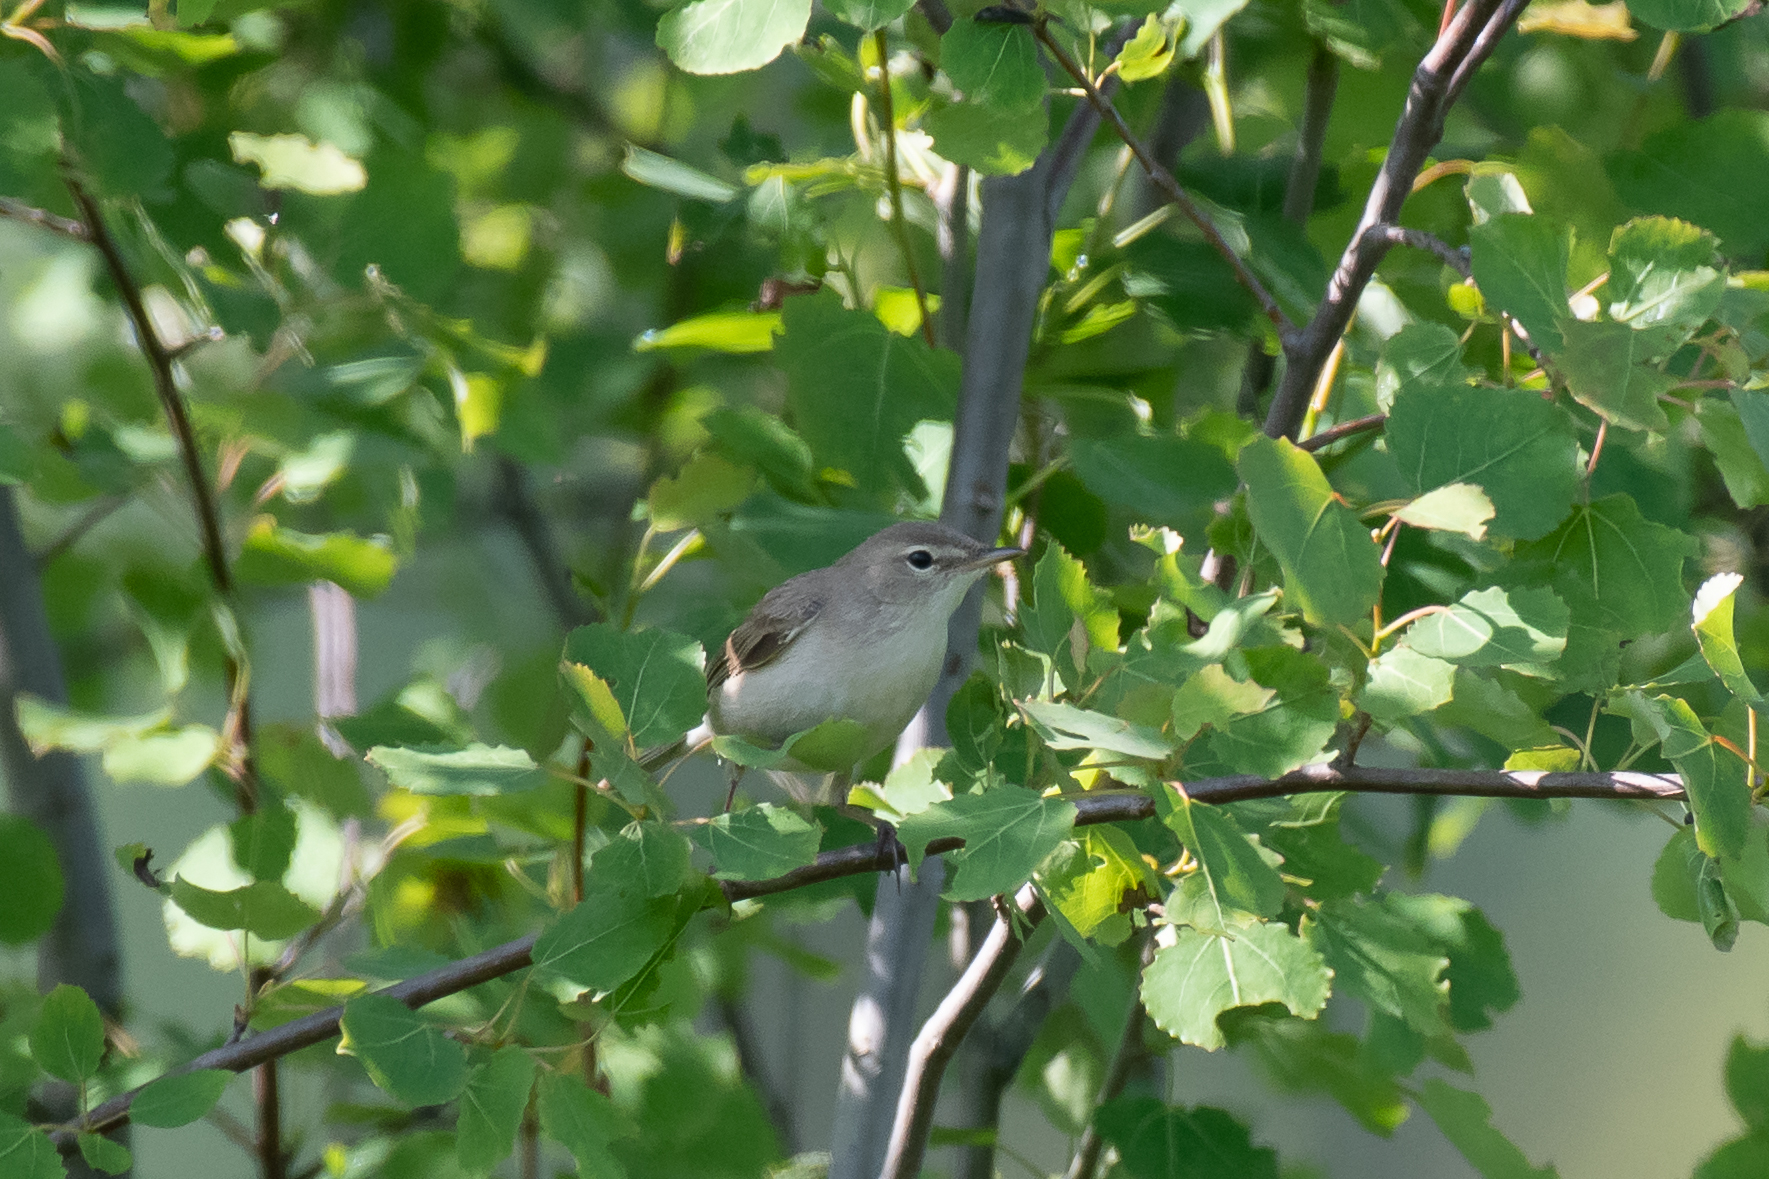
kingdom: Animalia
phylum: Chordata
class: Aves
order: Passeriformes
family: Acrocephalidae
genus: Iduna
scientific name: Iduna caligata
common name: Booted warbler
